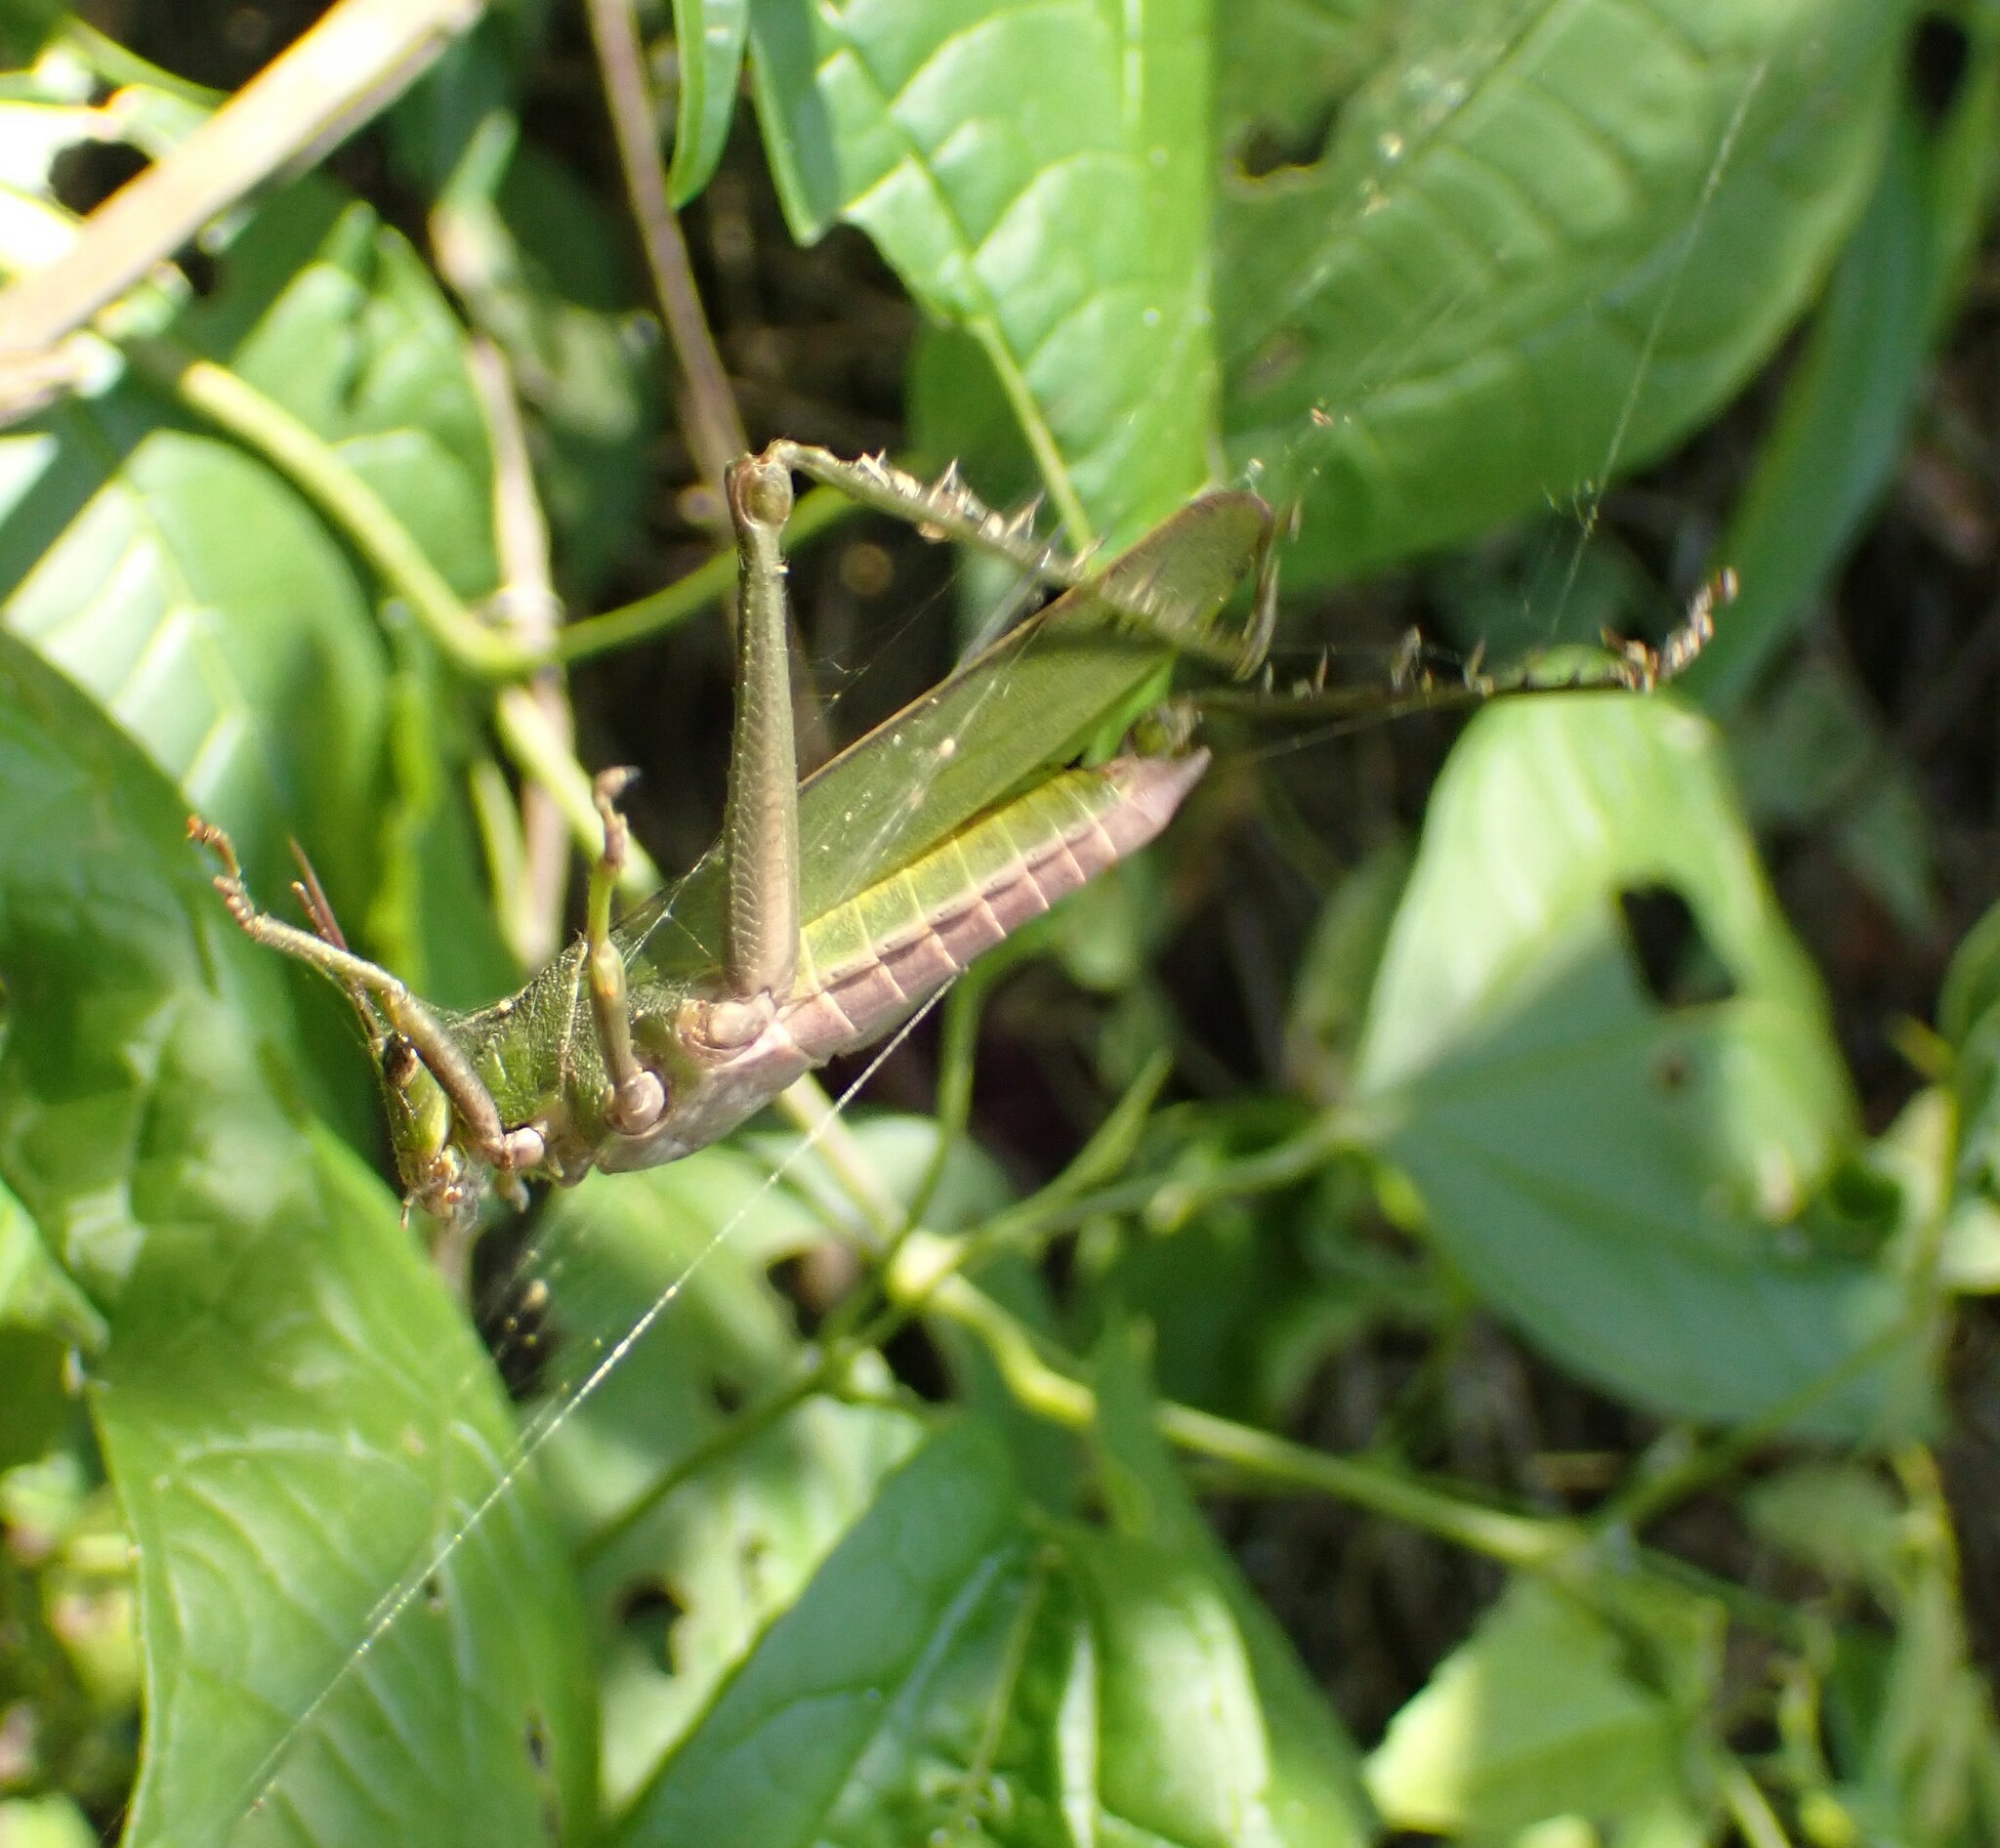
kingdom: Animalia
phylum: Arthropoda
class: Insecta
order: Orthoptera
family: Romaleidae
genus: Agriacris
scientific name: Agriacris auripennis
